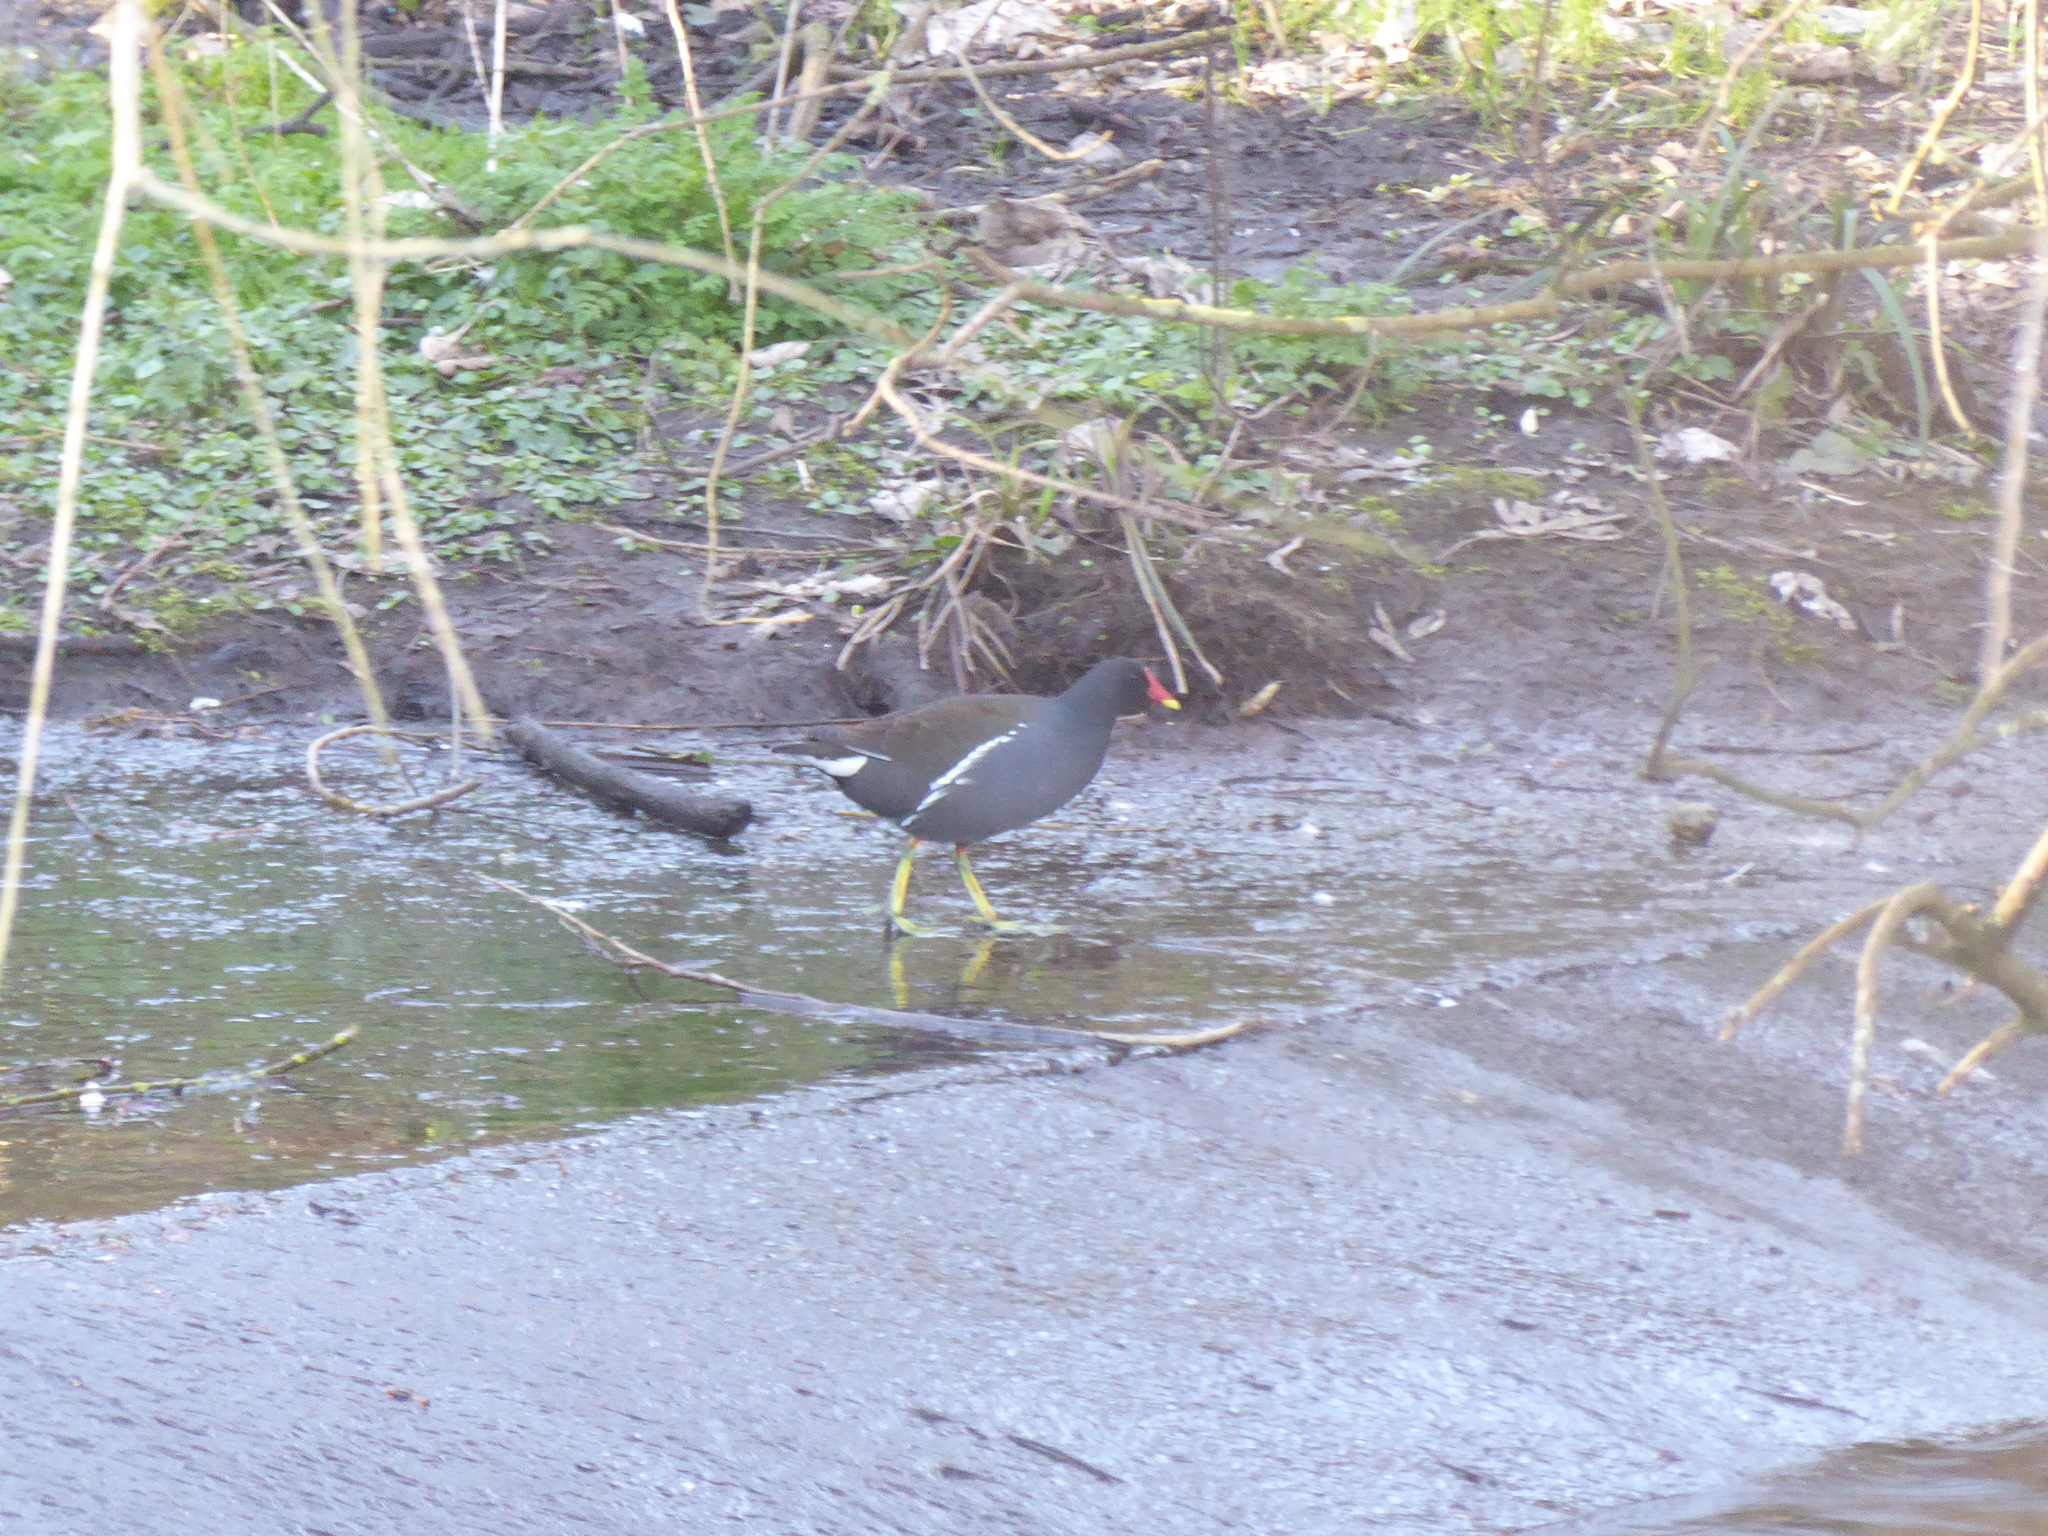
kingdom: Animalia
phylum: Chordata
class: Aves
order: Gruiformes
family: Rallidae
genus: Gallinula
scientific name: Gallinula chloropus
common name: Common moorhen
